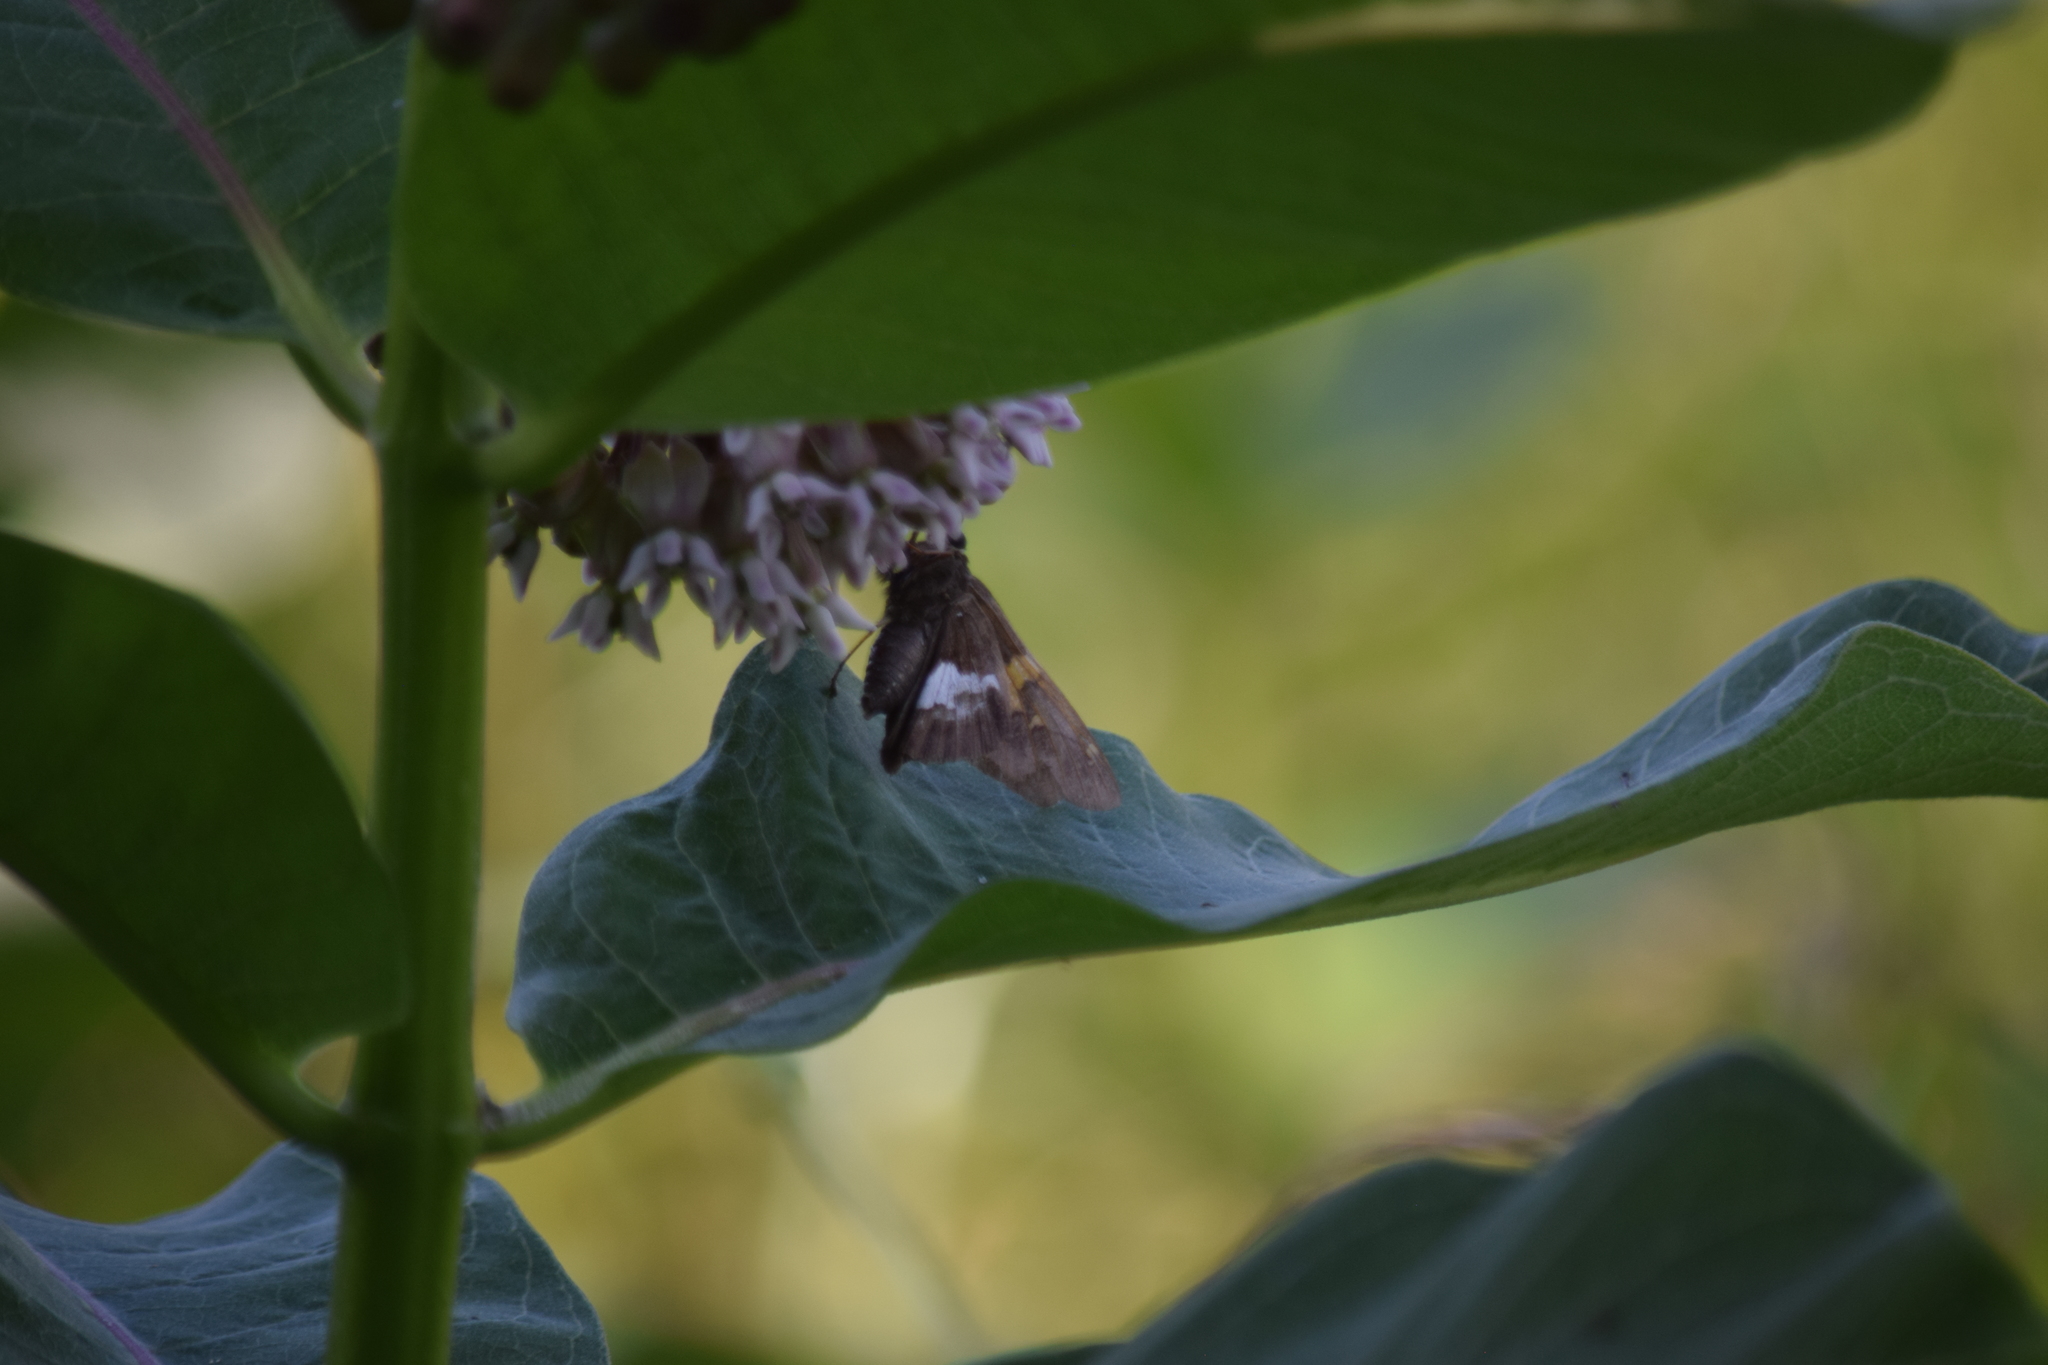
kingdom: Animalia
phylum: Arthropoda
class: Insecta
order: Lepidoptera
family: Hesperiidae
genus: Epargyreus
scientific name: Epargyreus clarus
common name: Silver-spotted skipper
